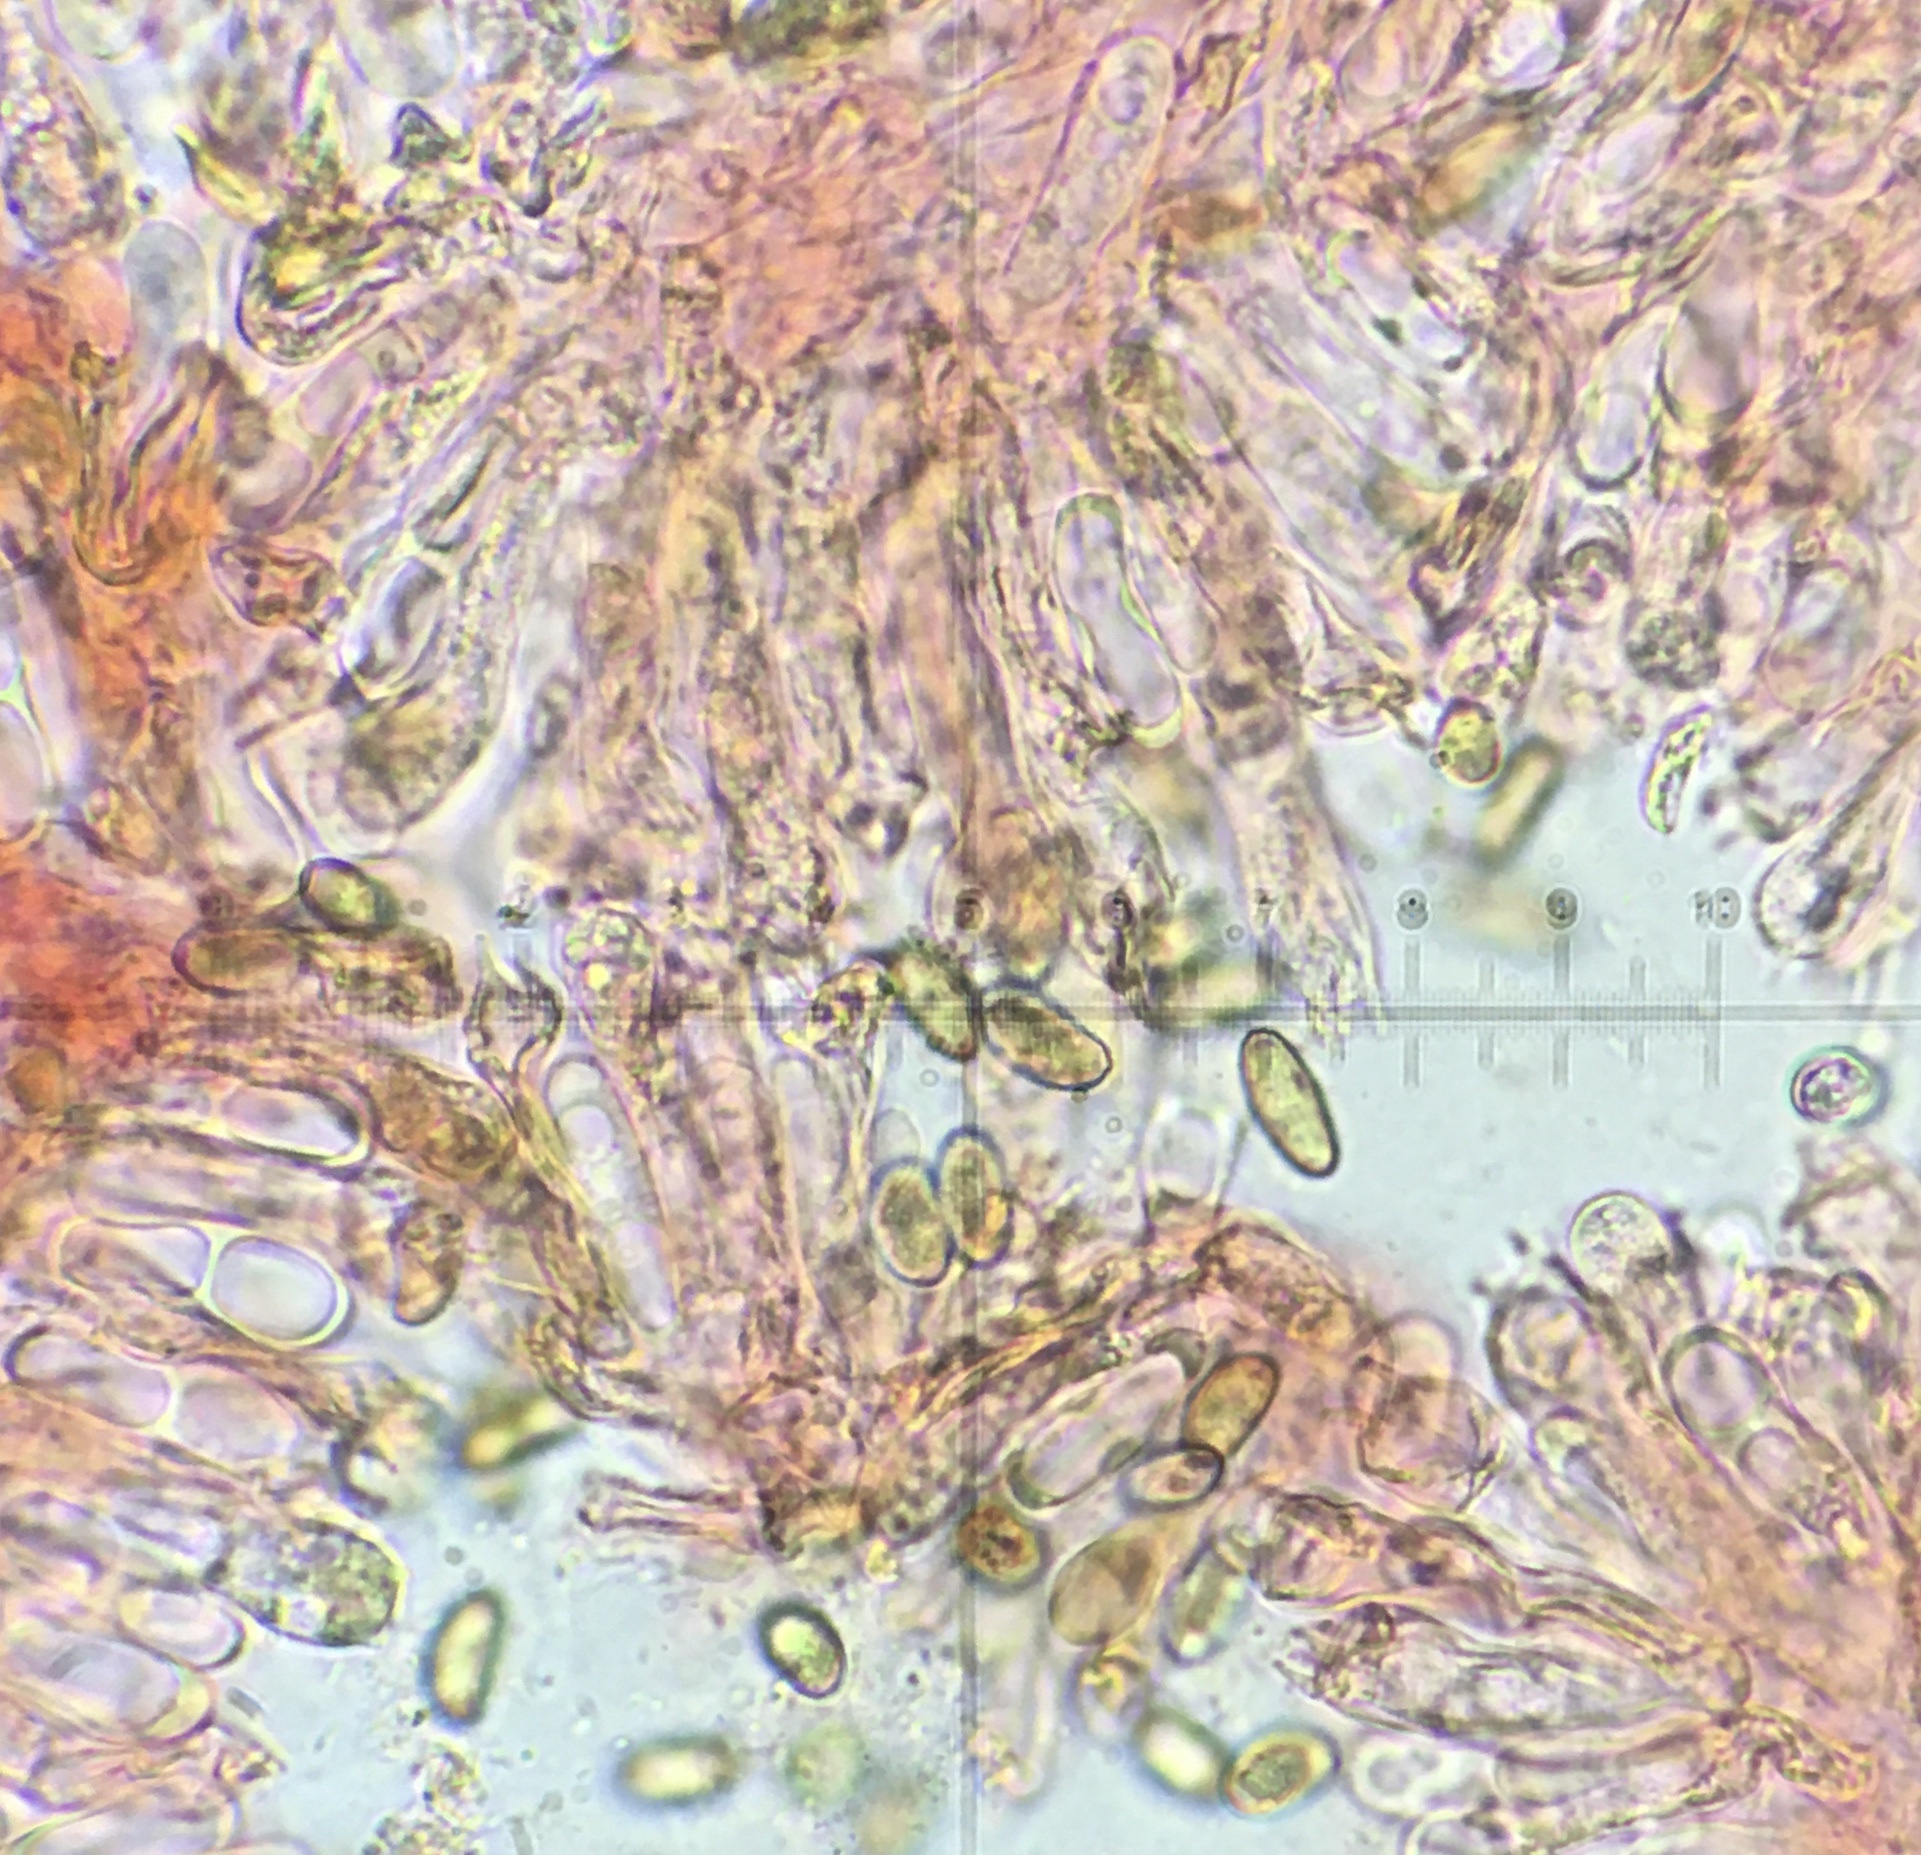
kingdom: Fungi
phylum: Basidiomycota
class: Agaricomycetes
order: Agaricales
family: Inocybaceae
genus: Mallocybe
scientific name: Mallocybe unicolor
